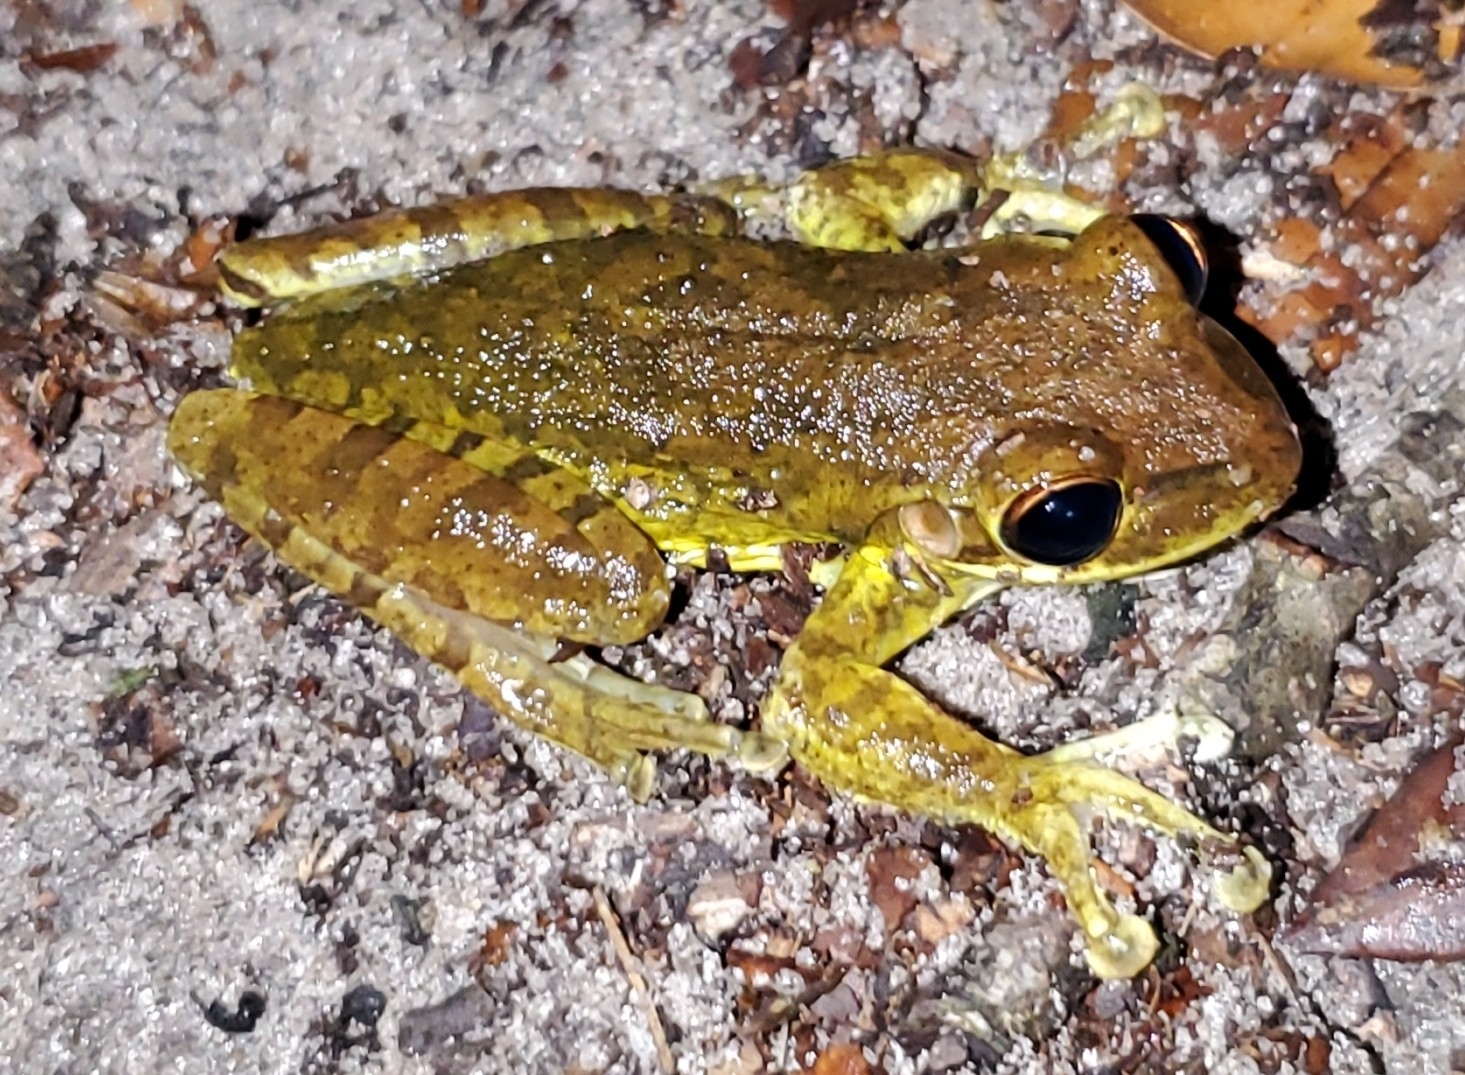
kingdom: Animalia
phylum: Chordata
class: Amphibia
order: Anura
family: Hylidae
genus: Osteopilus
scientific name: Osteopilus septentrionalis
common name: Cuban treefrog
